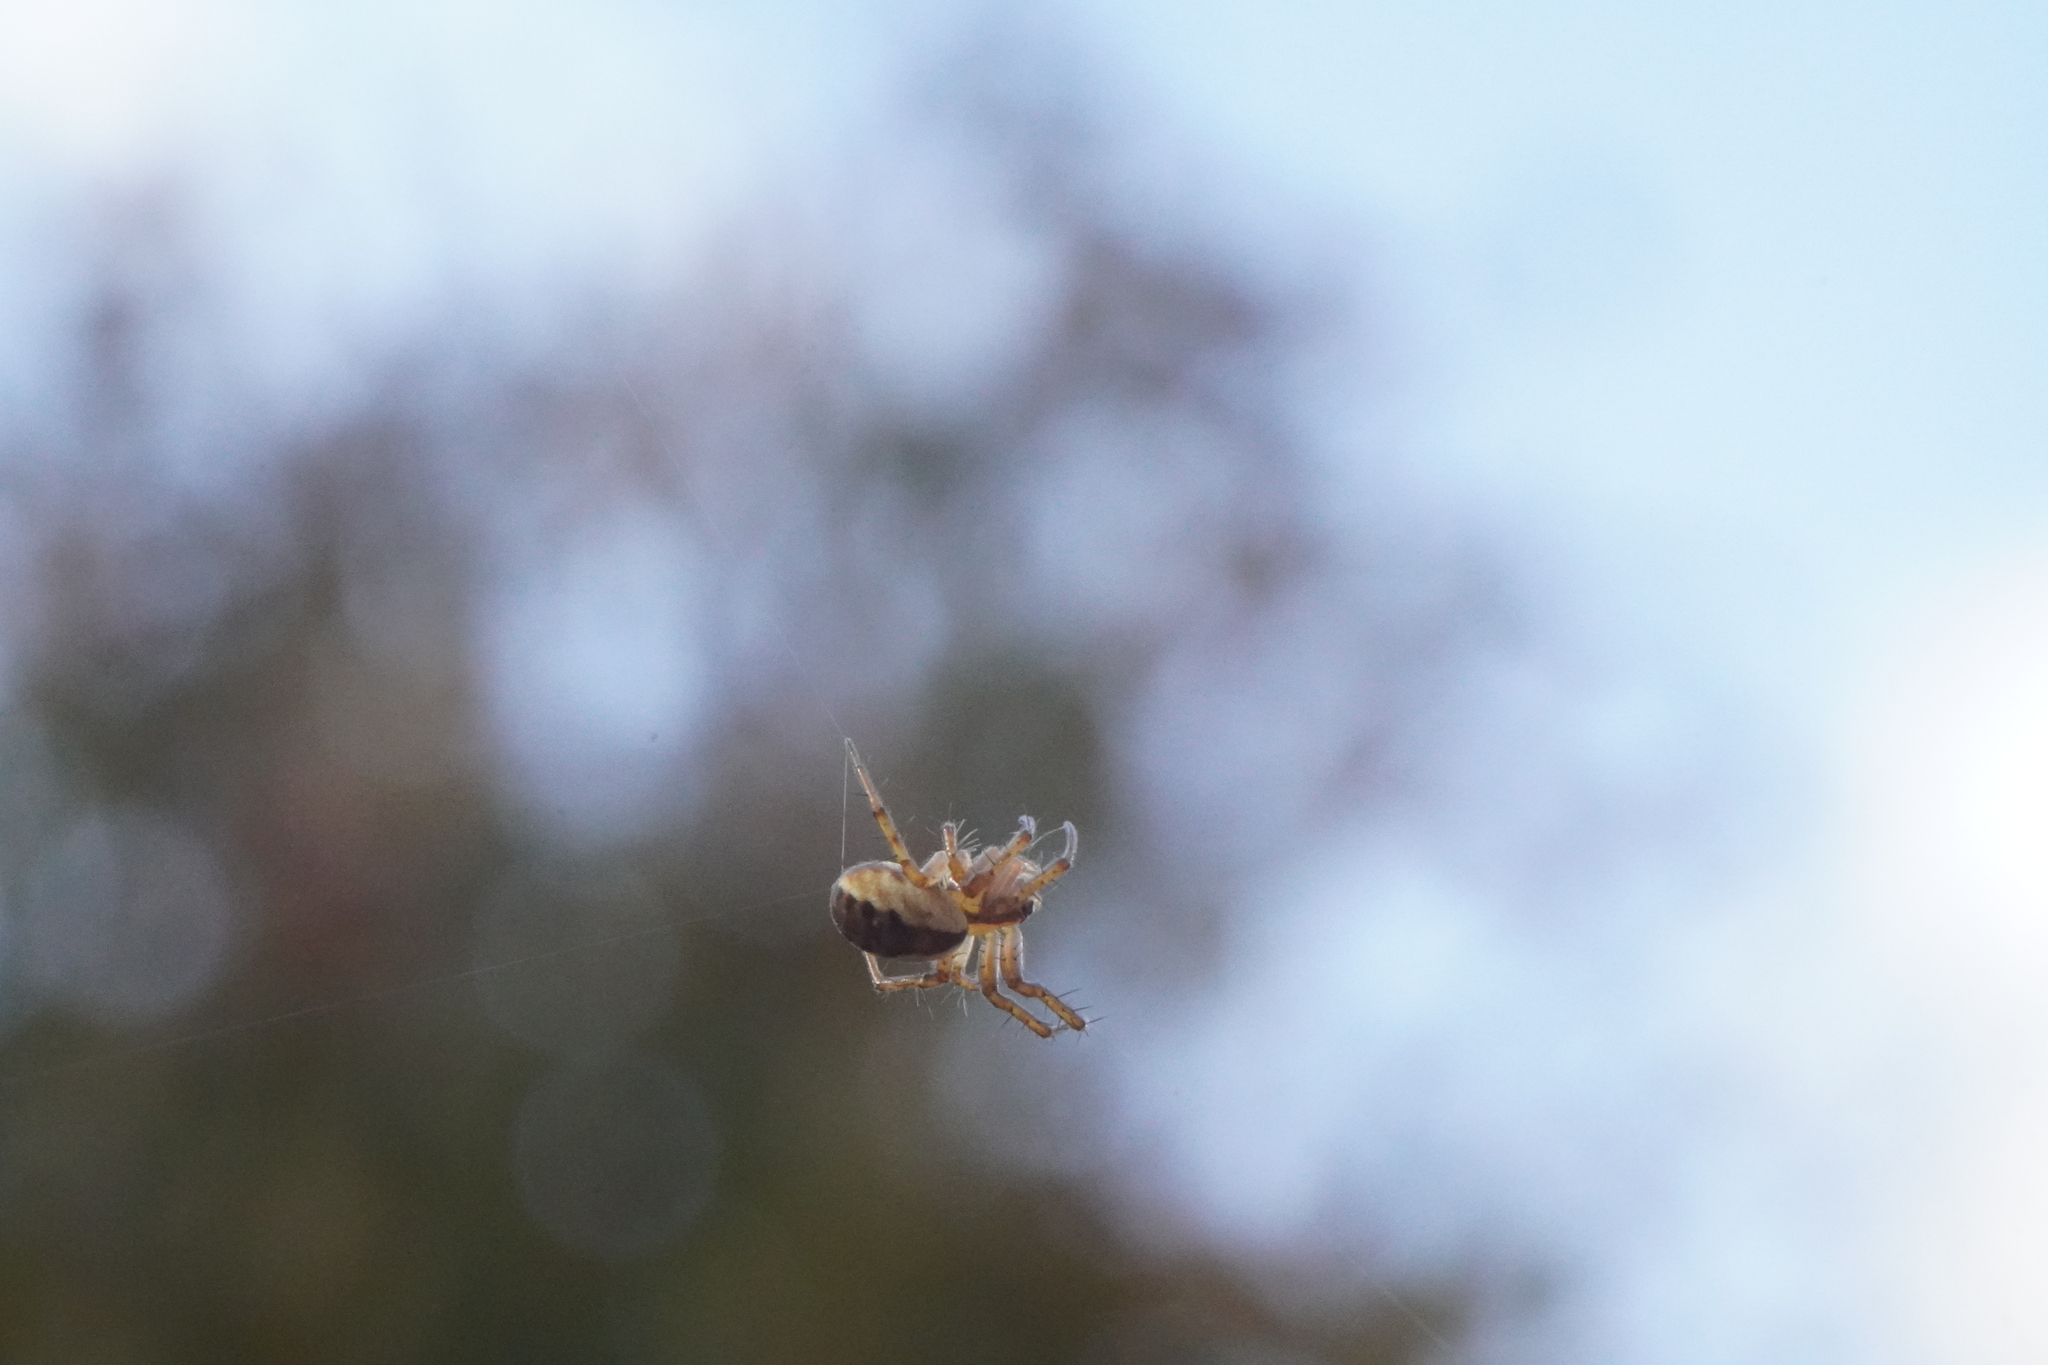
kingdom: Animalia
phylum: Arthropoda
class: Arachnida
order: Araneae
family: Araneidae
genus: Mangora
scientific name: Mangora placida
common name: Tuft-legged orbweaver
